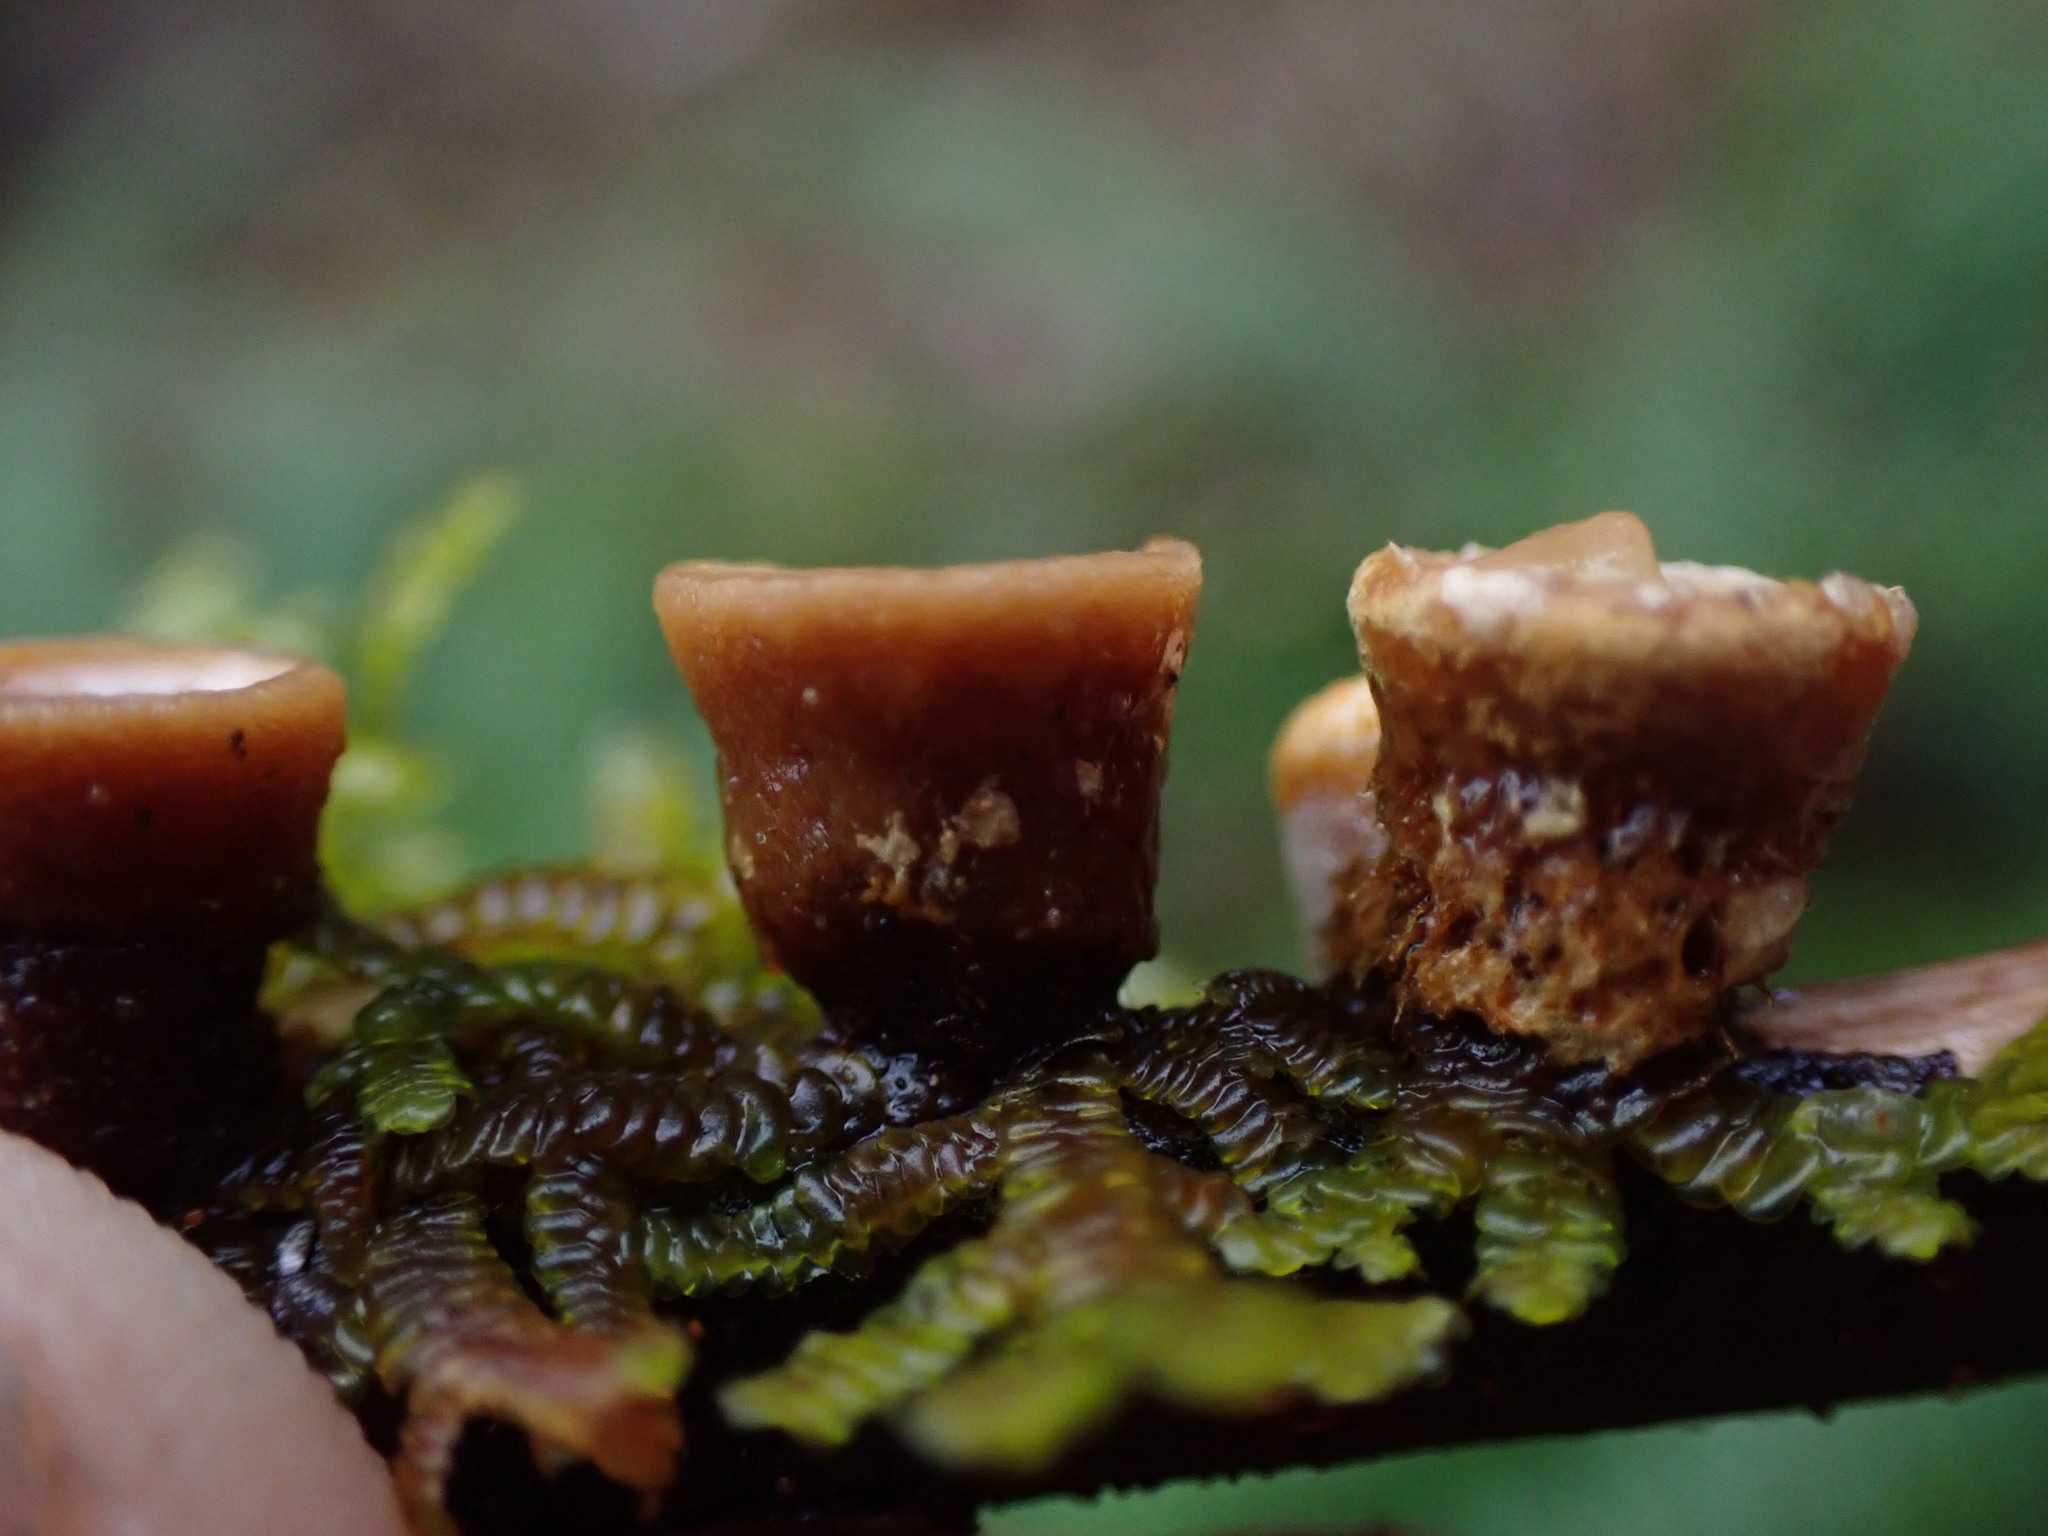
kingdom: Fungi
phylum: Basidiomycota
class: Agaricomycetes
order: Agaricales
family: Nidulariaceae
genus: Crucibulum
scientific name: Crucibulum laeve
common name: Common bird's nest
